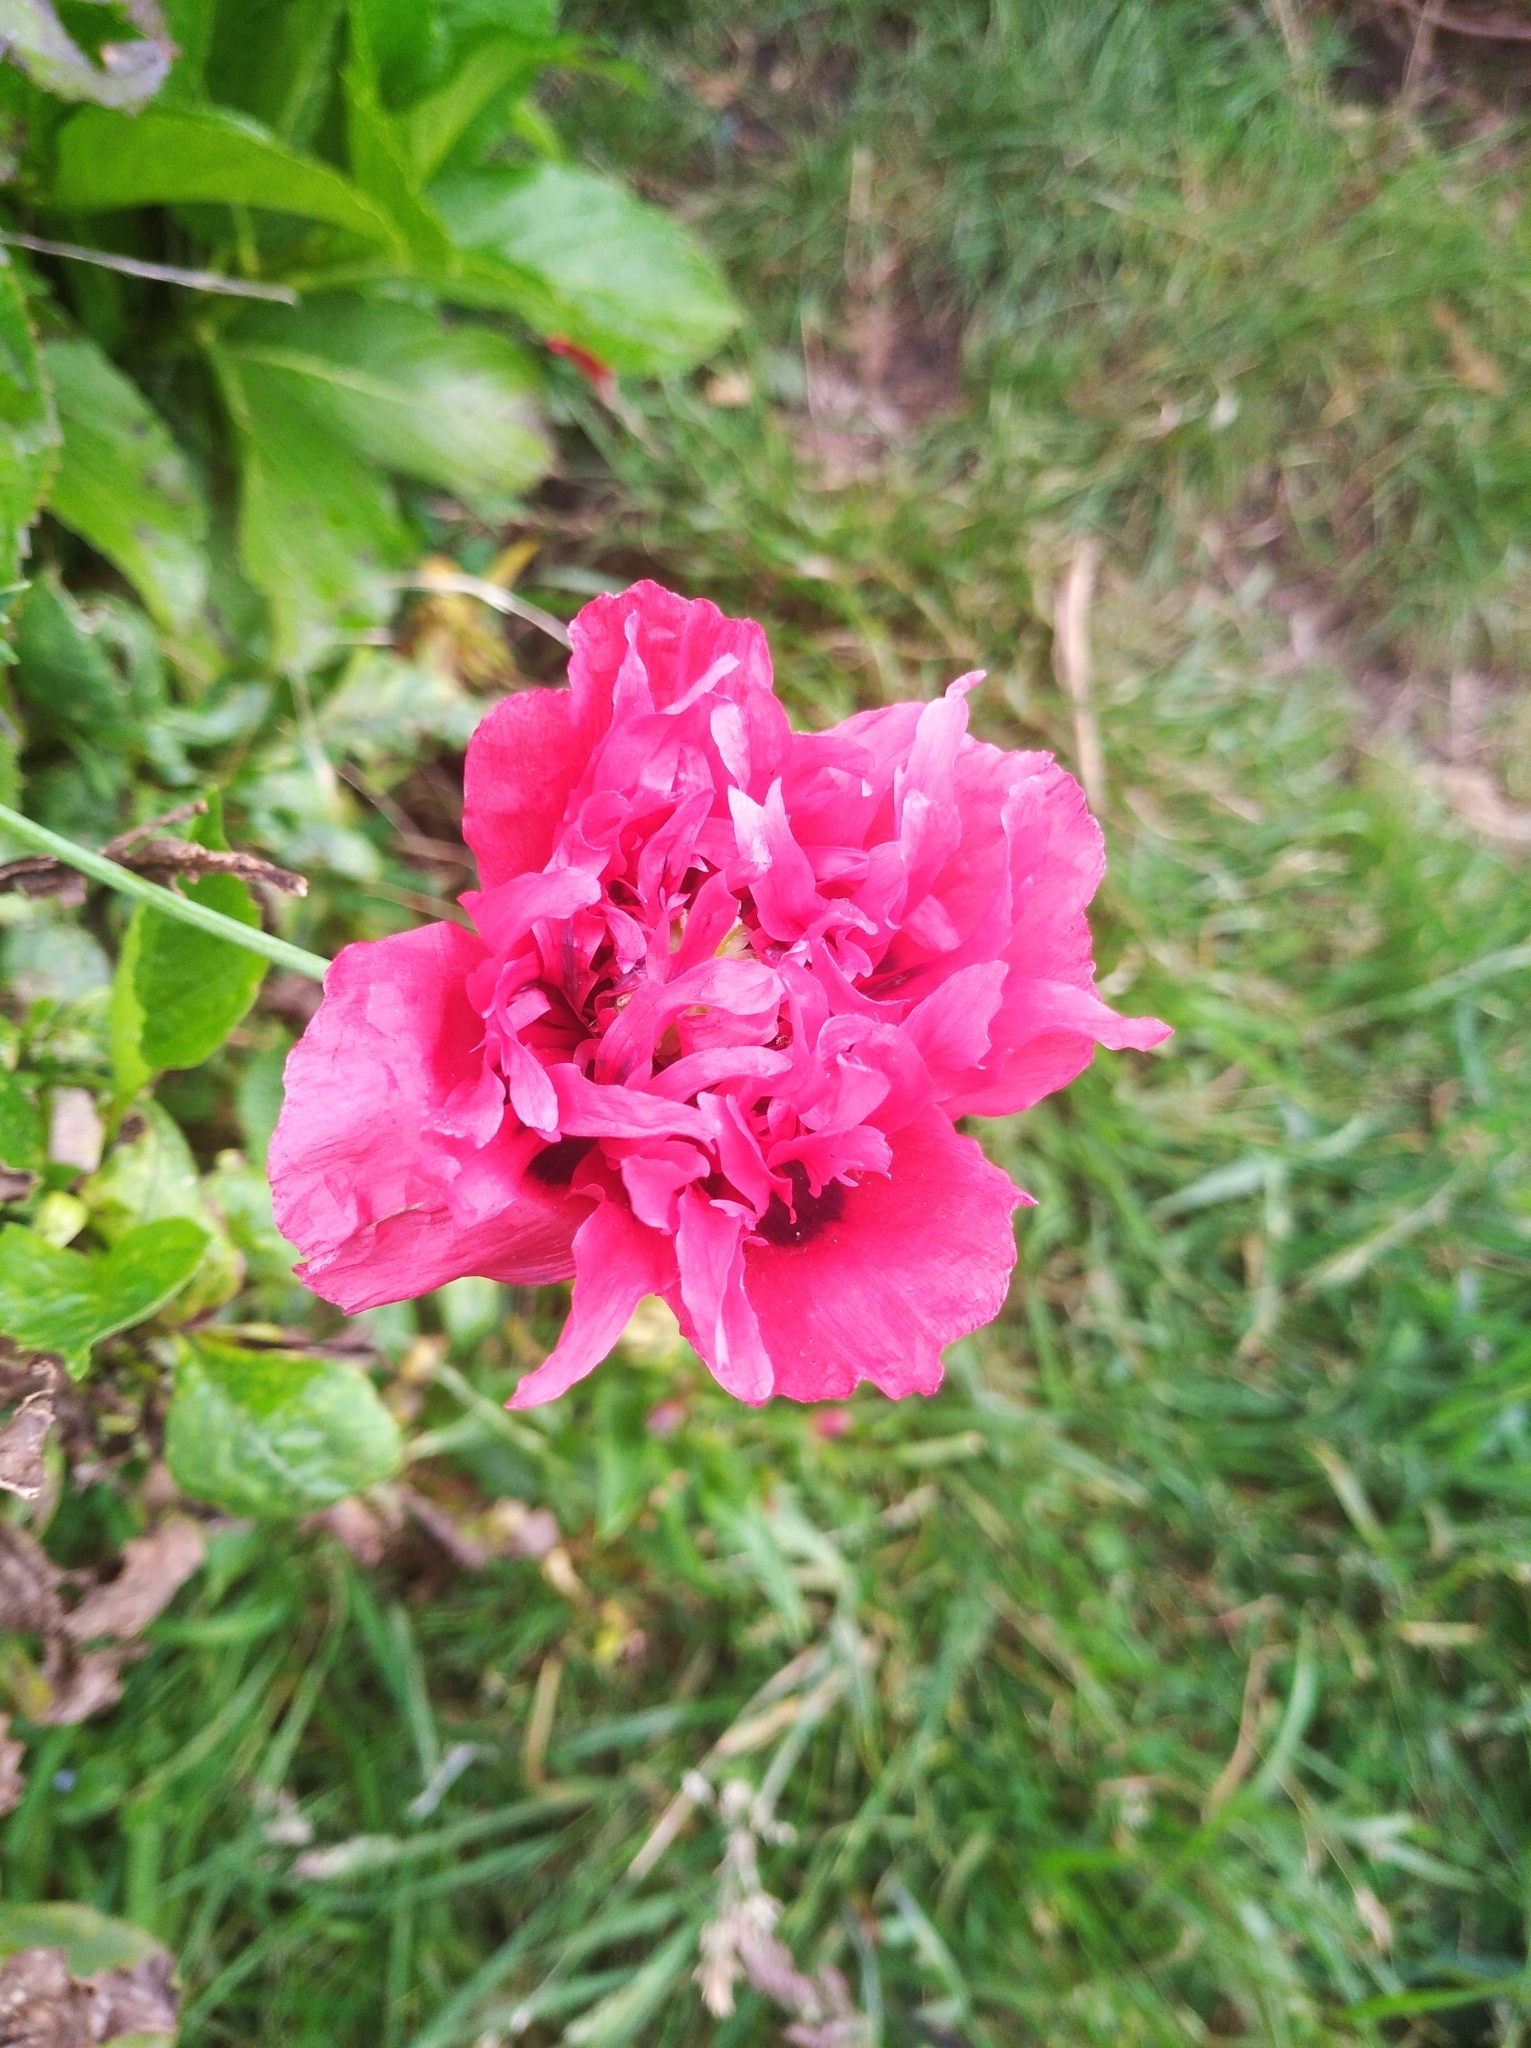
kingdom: Plantae
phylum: Tracheophyta
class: Magnoliopsida
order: Ranunculales
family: Papaveraceae
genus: Papaver
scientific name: Papaver somniferum
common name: Opium poppy
